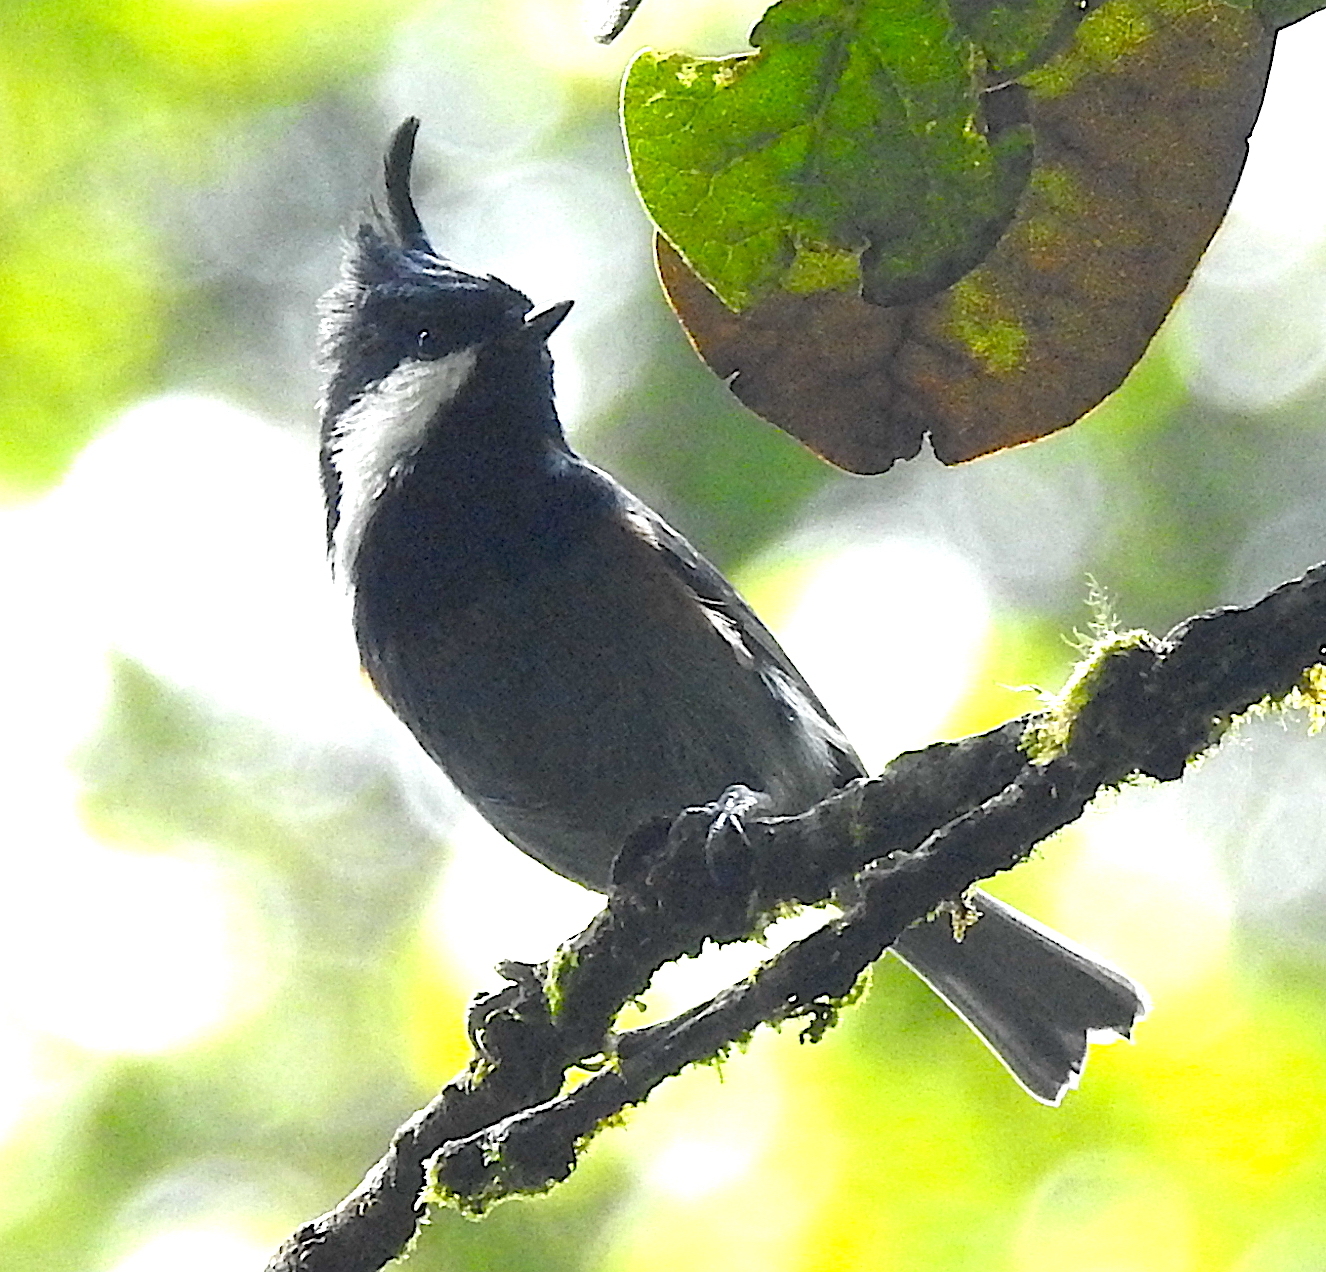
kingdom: Animalia
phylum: Chordata
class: Aves
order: Passeriformes
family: Paridae
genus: Periparus
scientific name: Periparus rubidiventris
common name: Rufous-vented tit
